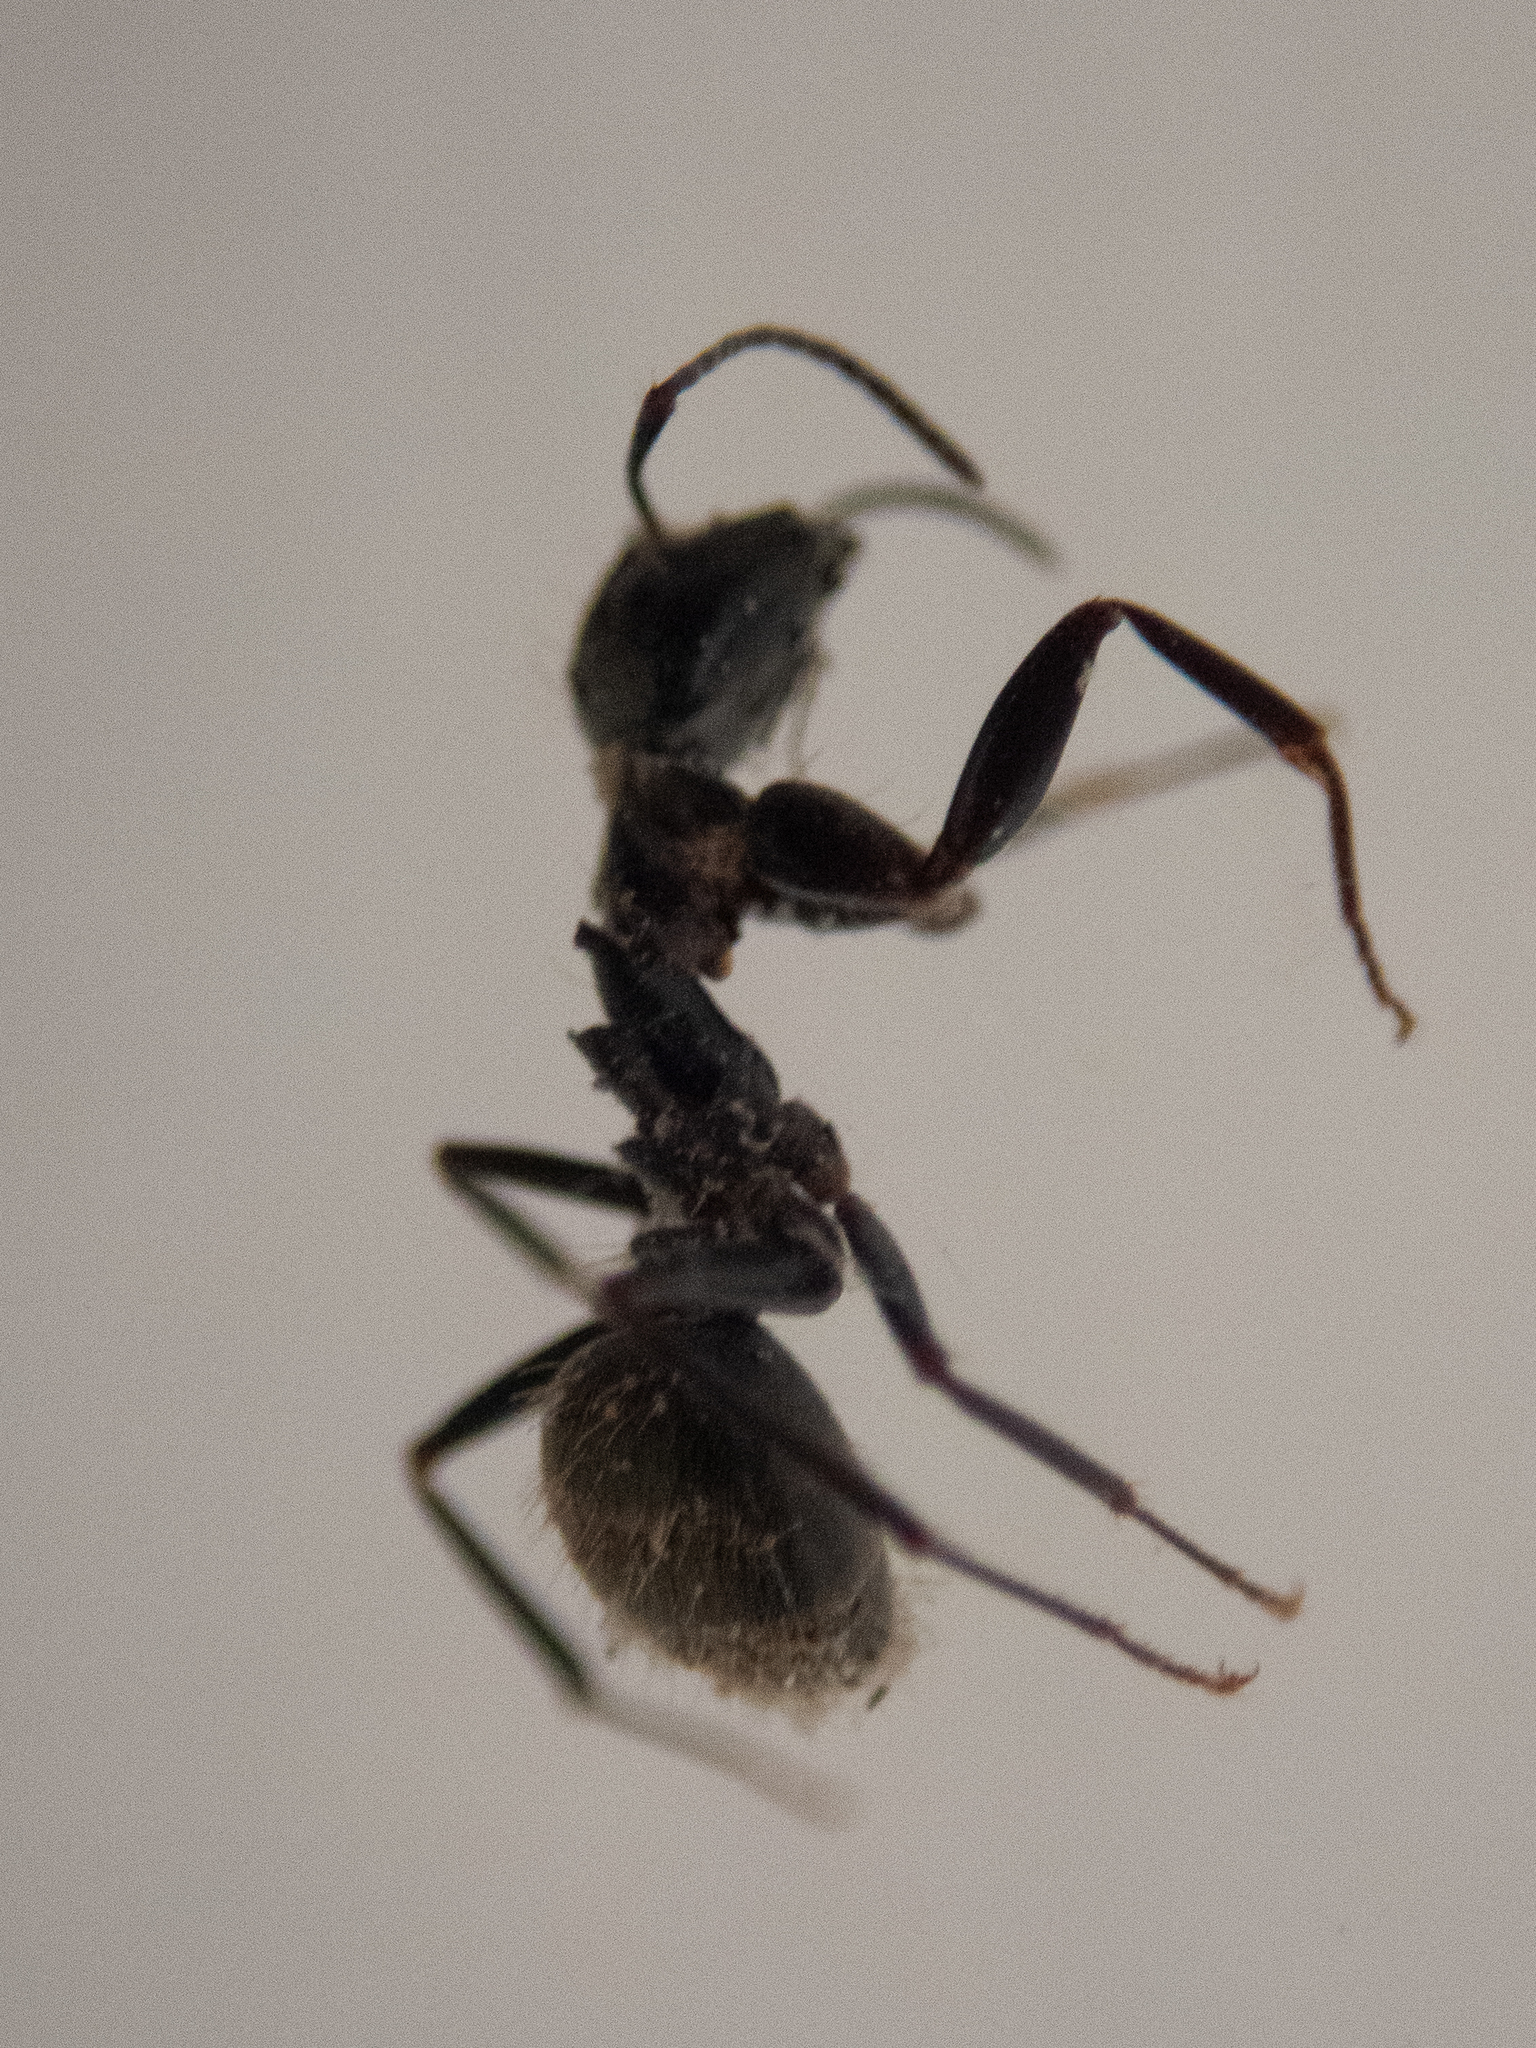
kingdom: Animalia
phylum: Arthropoda
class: Insecta
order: Hymenoptera
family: Formicidae
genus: Camponotus
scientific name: Camponotus pennsylvanicus
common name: Black carpenter ant
